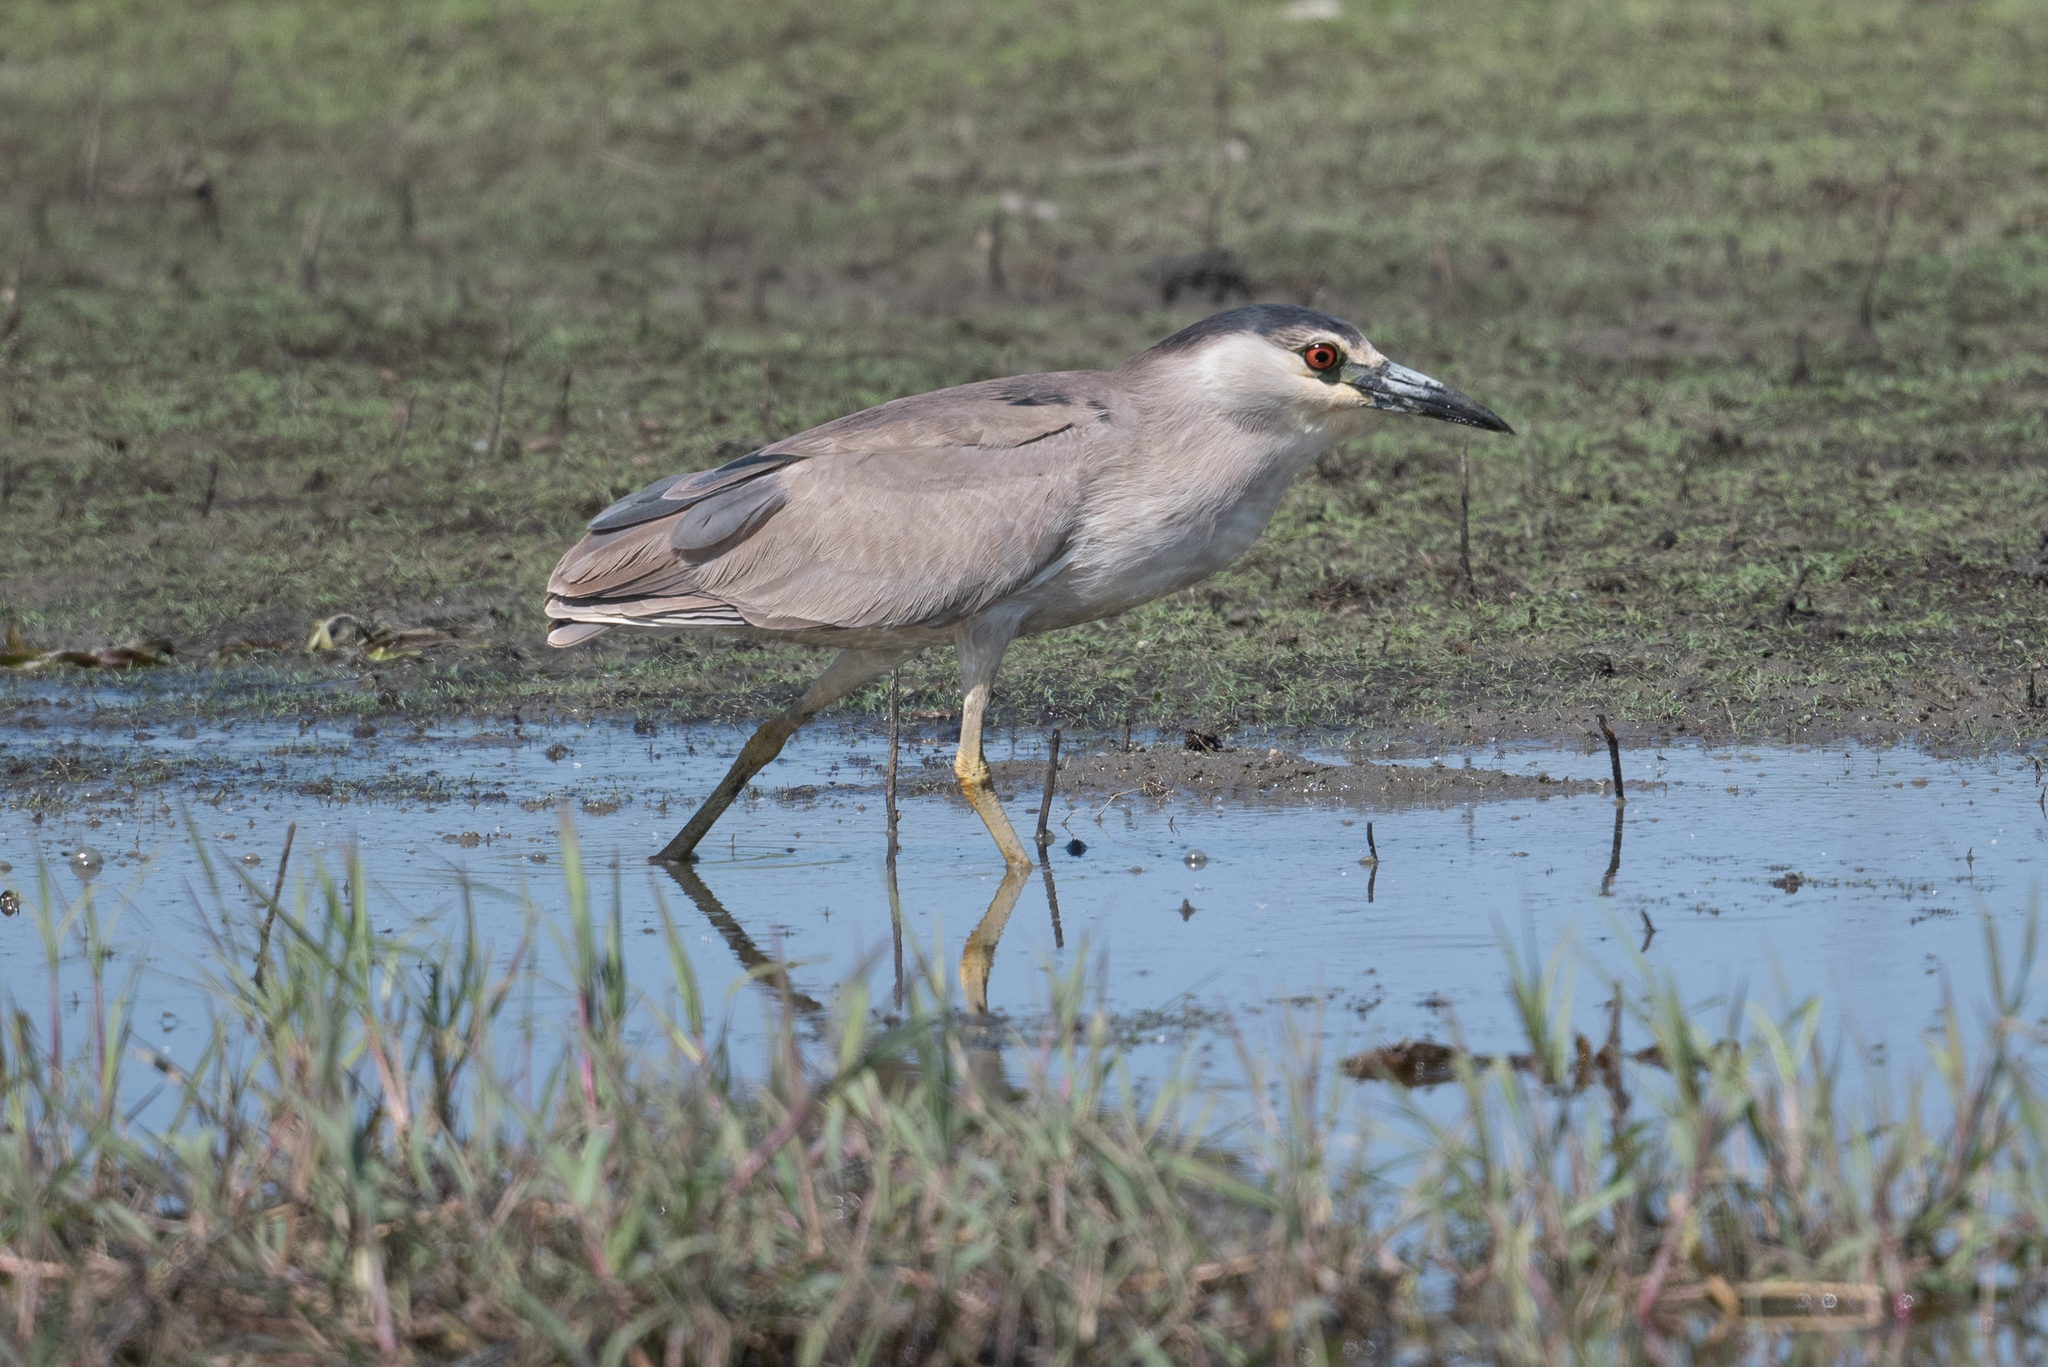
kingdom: Animalia
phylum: Chordata
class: Aves
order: Pelecaniformes
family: Ardeidae
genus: Nycticorax
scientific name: Nycticorax nycticorax
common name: Black-crowned night heron
